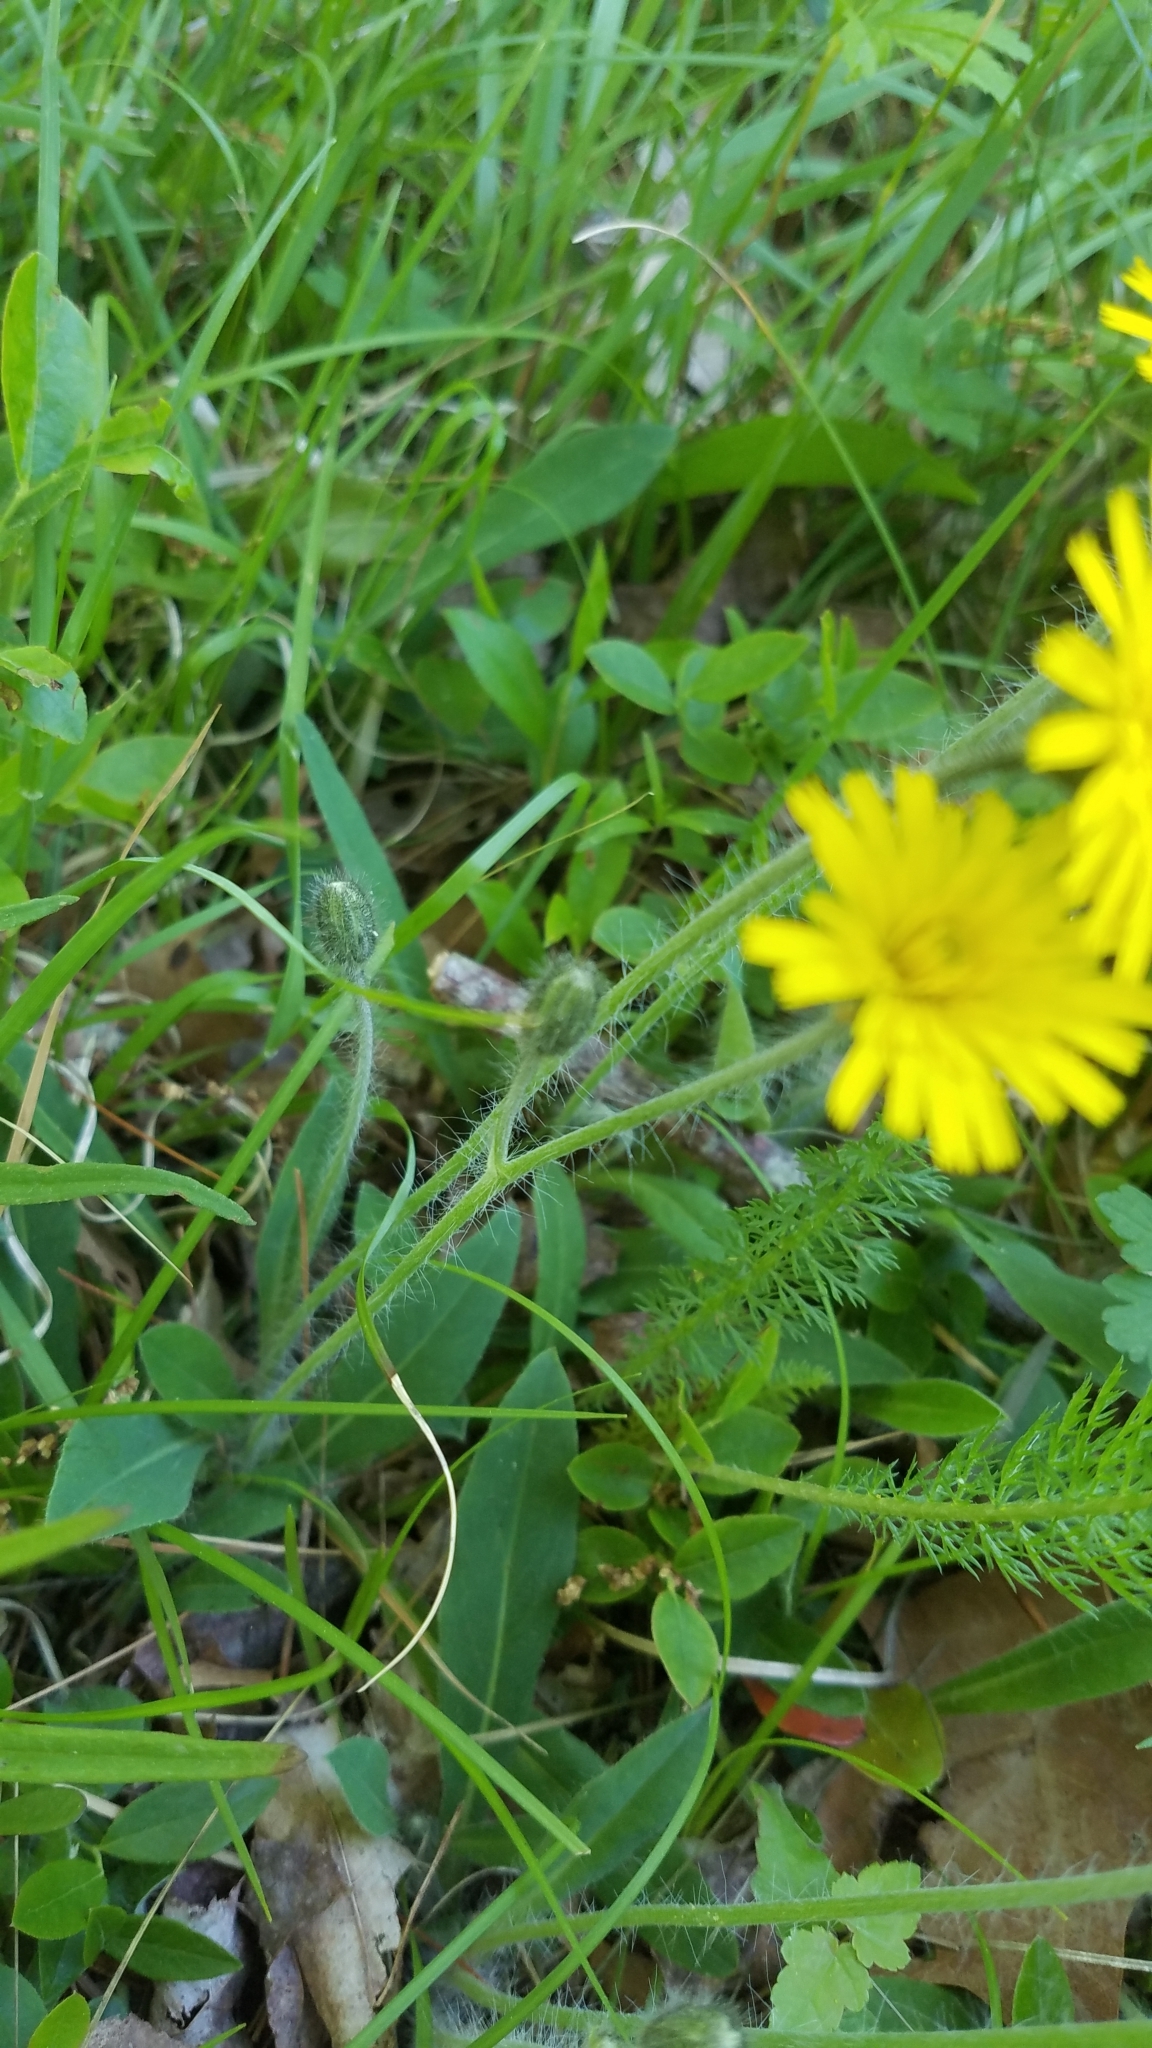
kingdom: Plantae
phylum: Tracheophyta
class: Magnoliopsida
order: Asterales
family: Asteraceae
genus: Scorzoneroides
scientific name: Scorzoneroides autumnalis
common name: Autumn hawkbit
